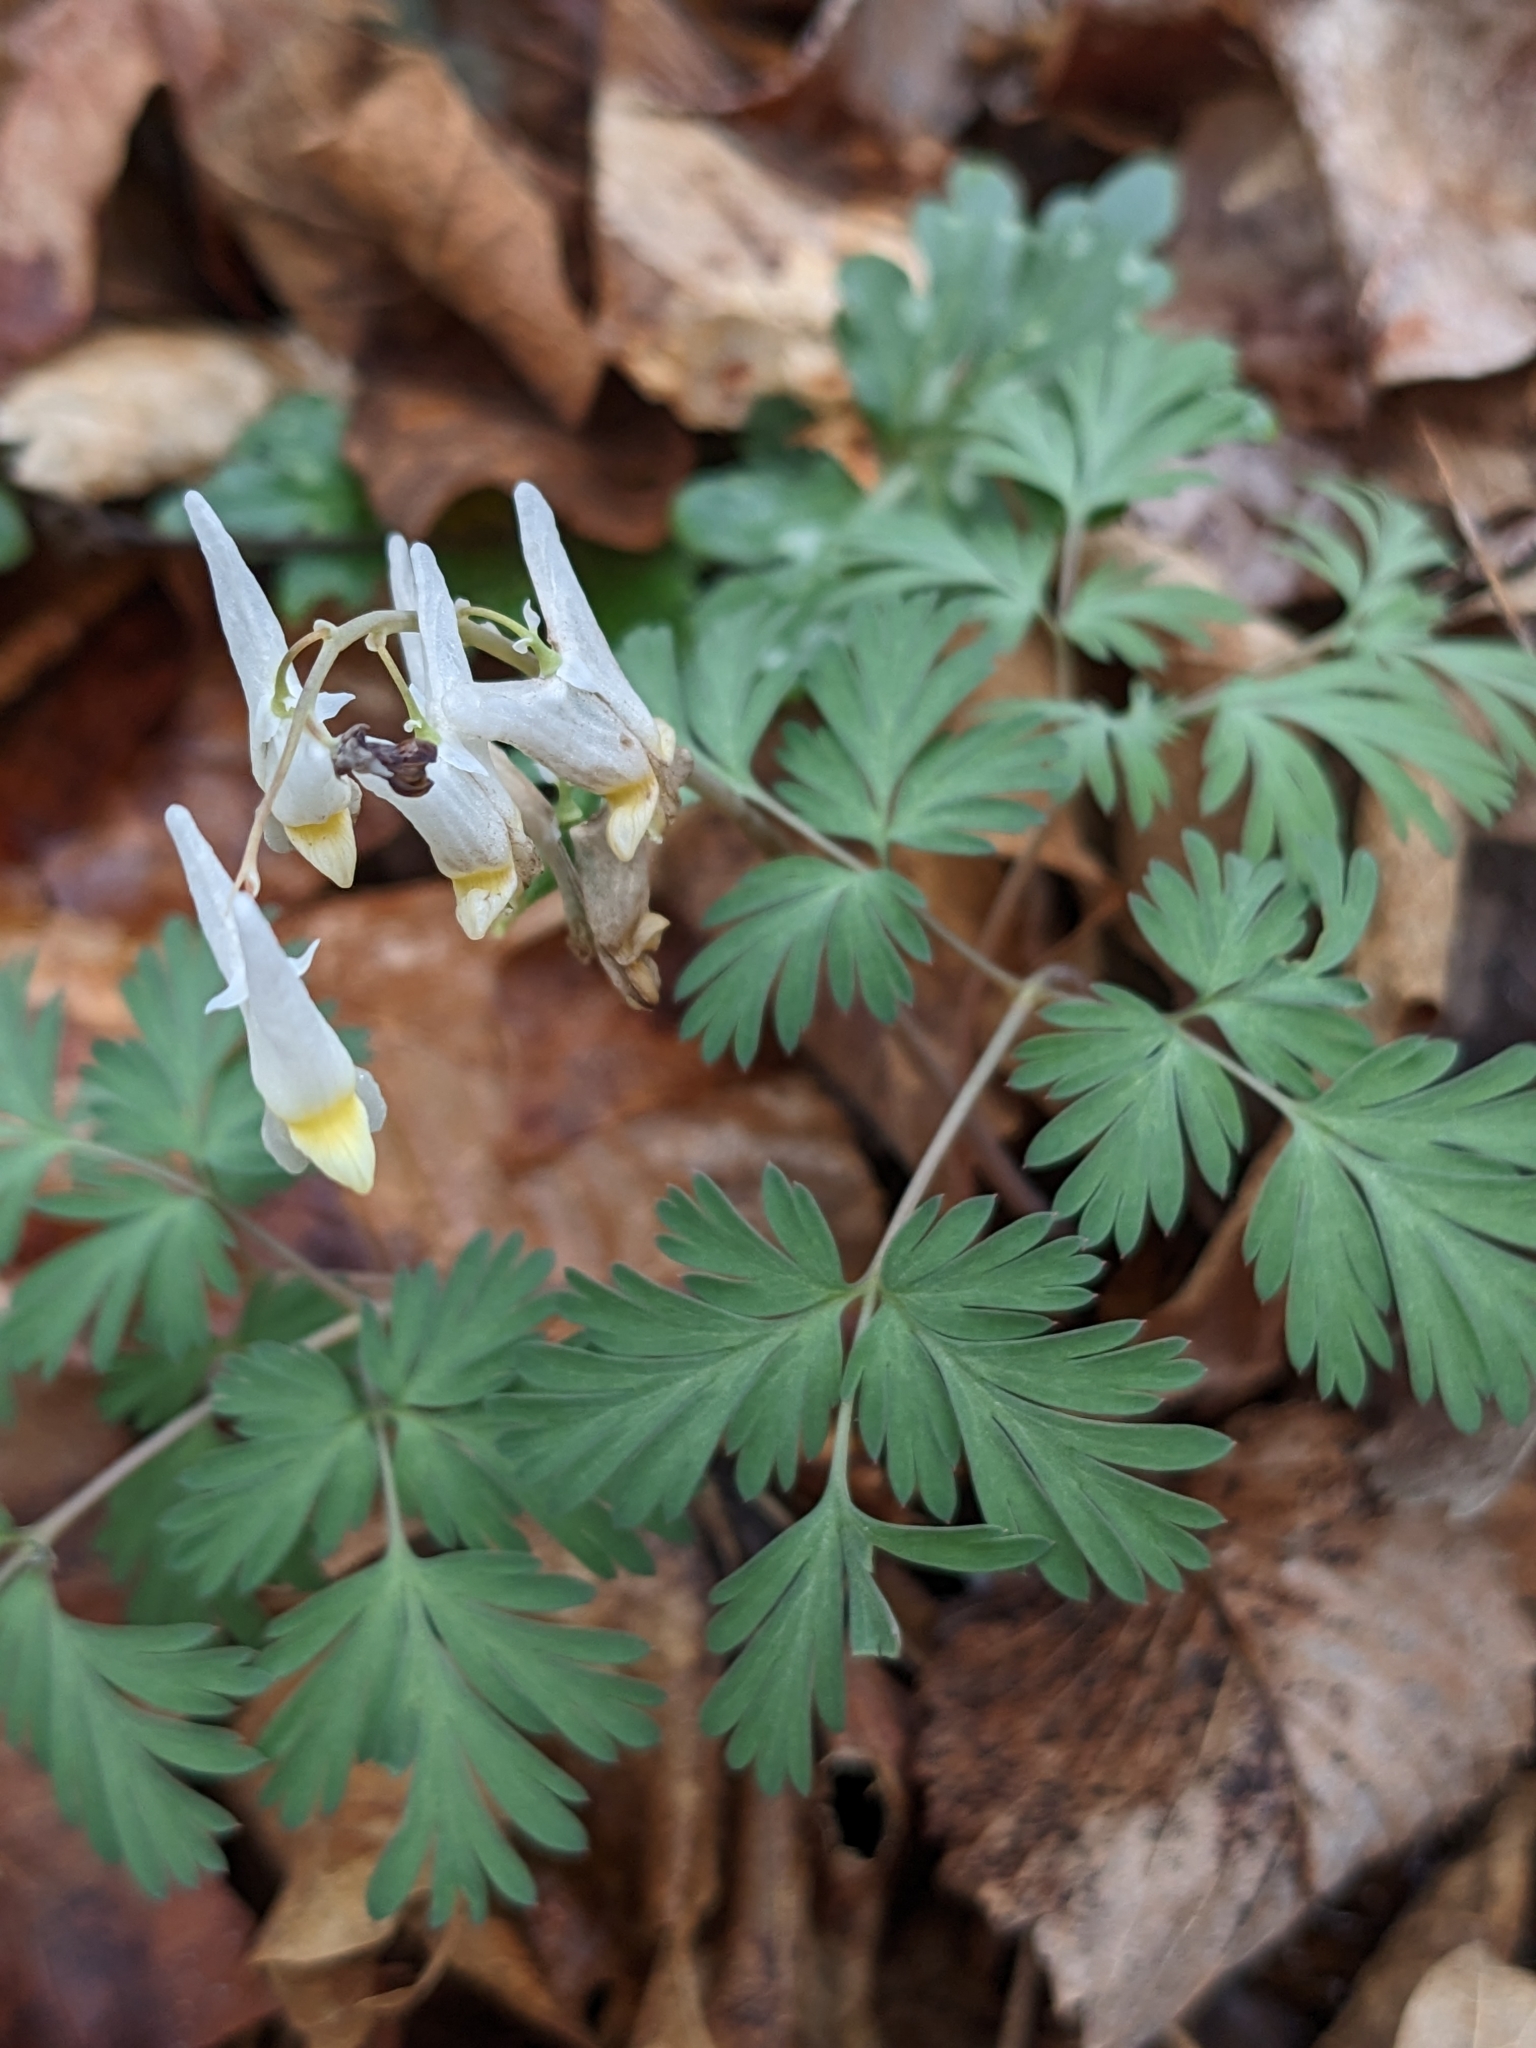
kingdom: Plantae
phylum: Tracheophyta
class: Magnoliopsida
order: Ranunculales
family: Papaveraceae
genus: Dicentra
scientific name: Dicentra cucullaria
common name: Dutchman's breeches
